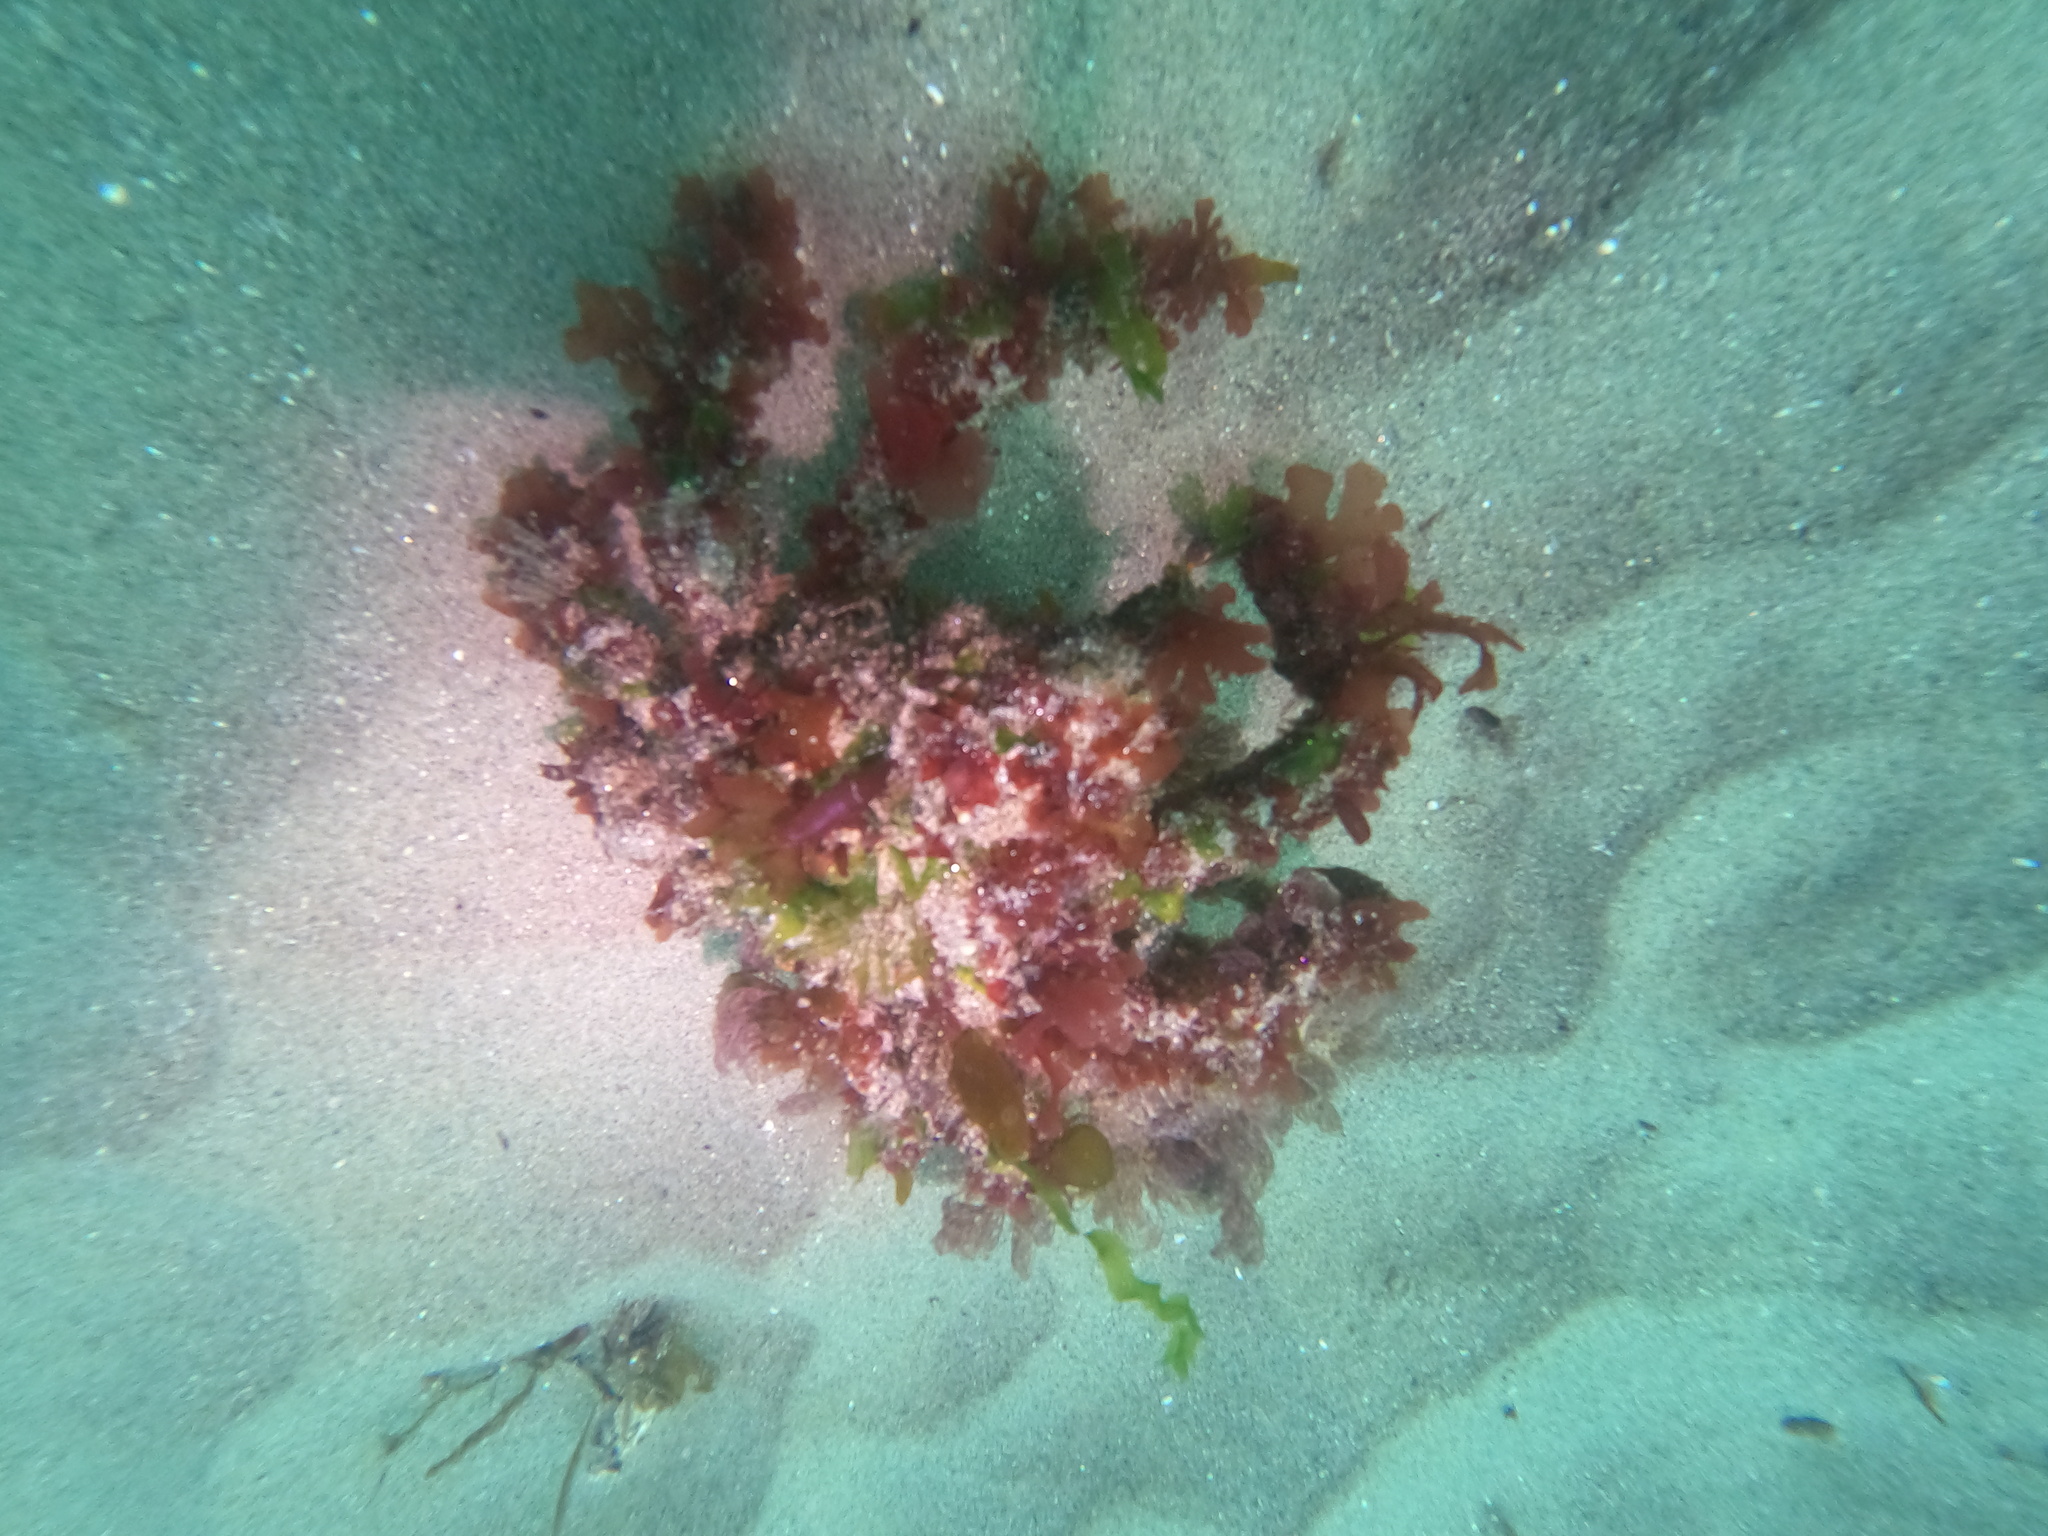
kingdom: Animalia
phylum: Arthropoda
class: Malacostraca
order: Decapoda
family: Epialtidae
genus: Loxorhynchus
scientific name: Loxorhynchus crispatus
